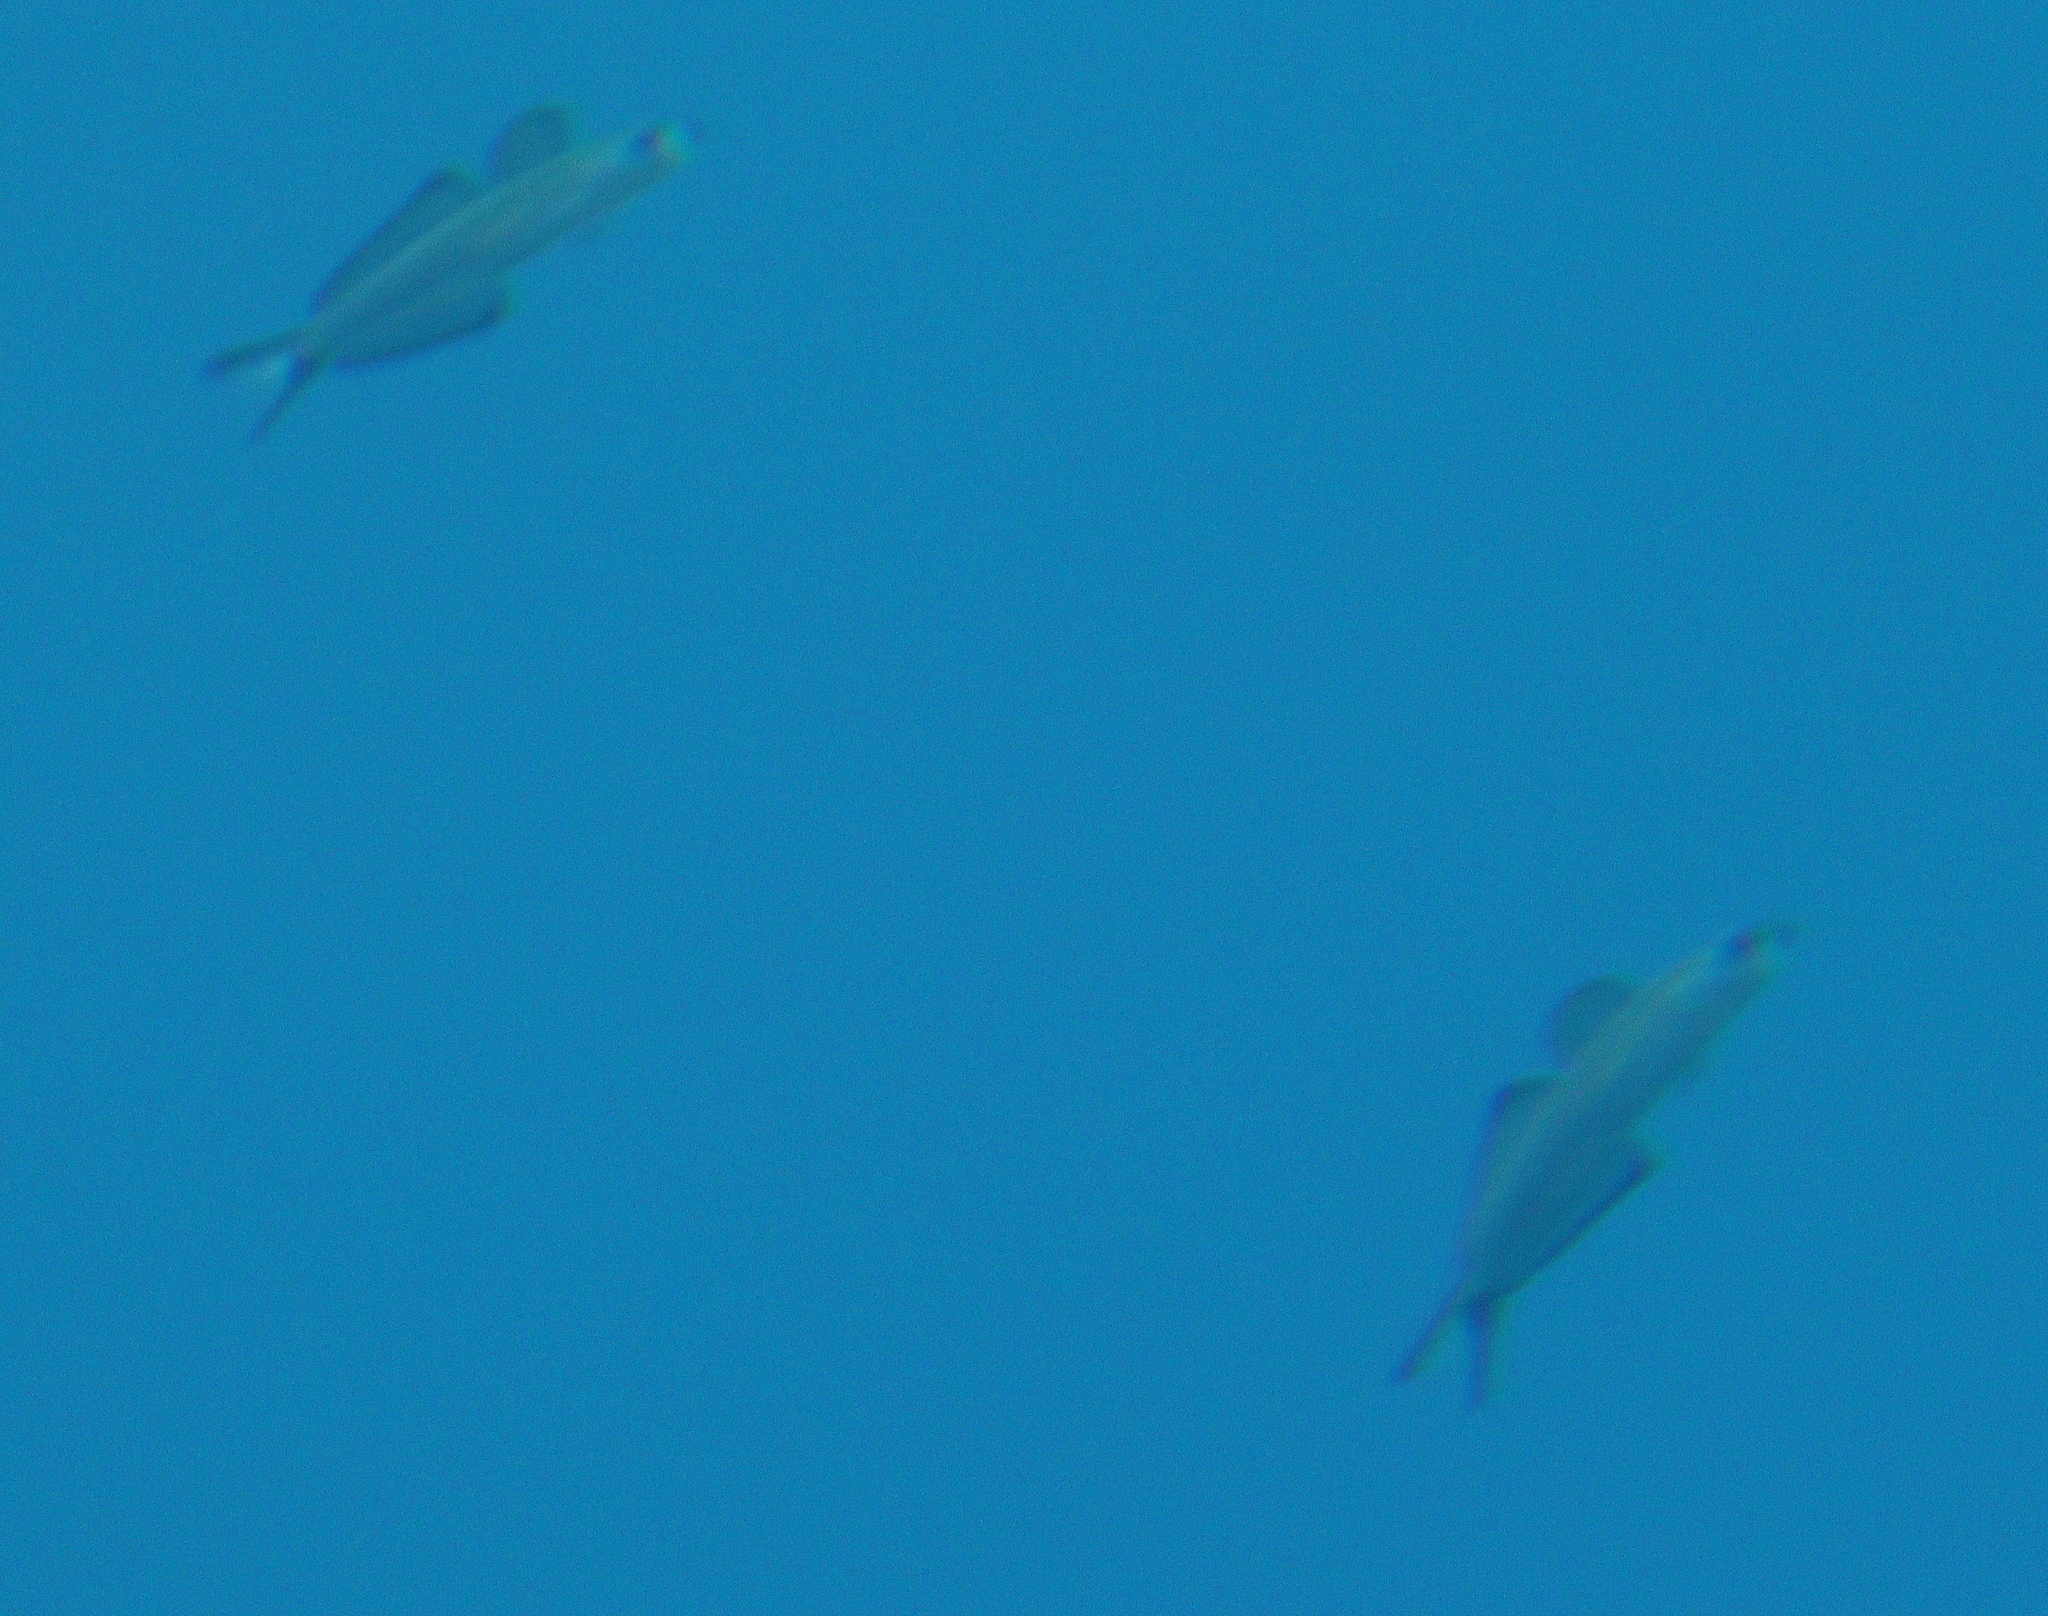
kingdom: Animalia
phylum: Chordata
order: Perciformes
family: Microdesmidae
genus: Ptereleotris
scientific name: Ptereleotris evides
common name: Blackfin dartfish
